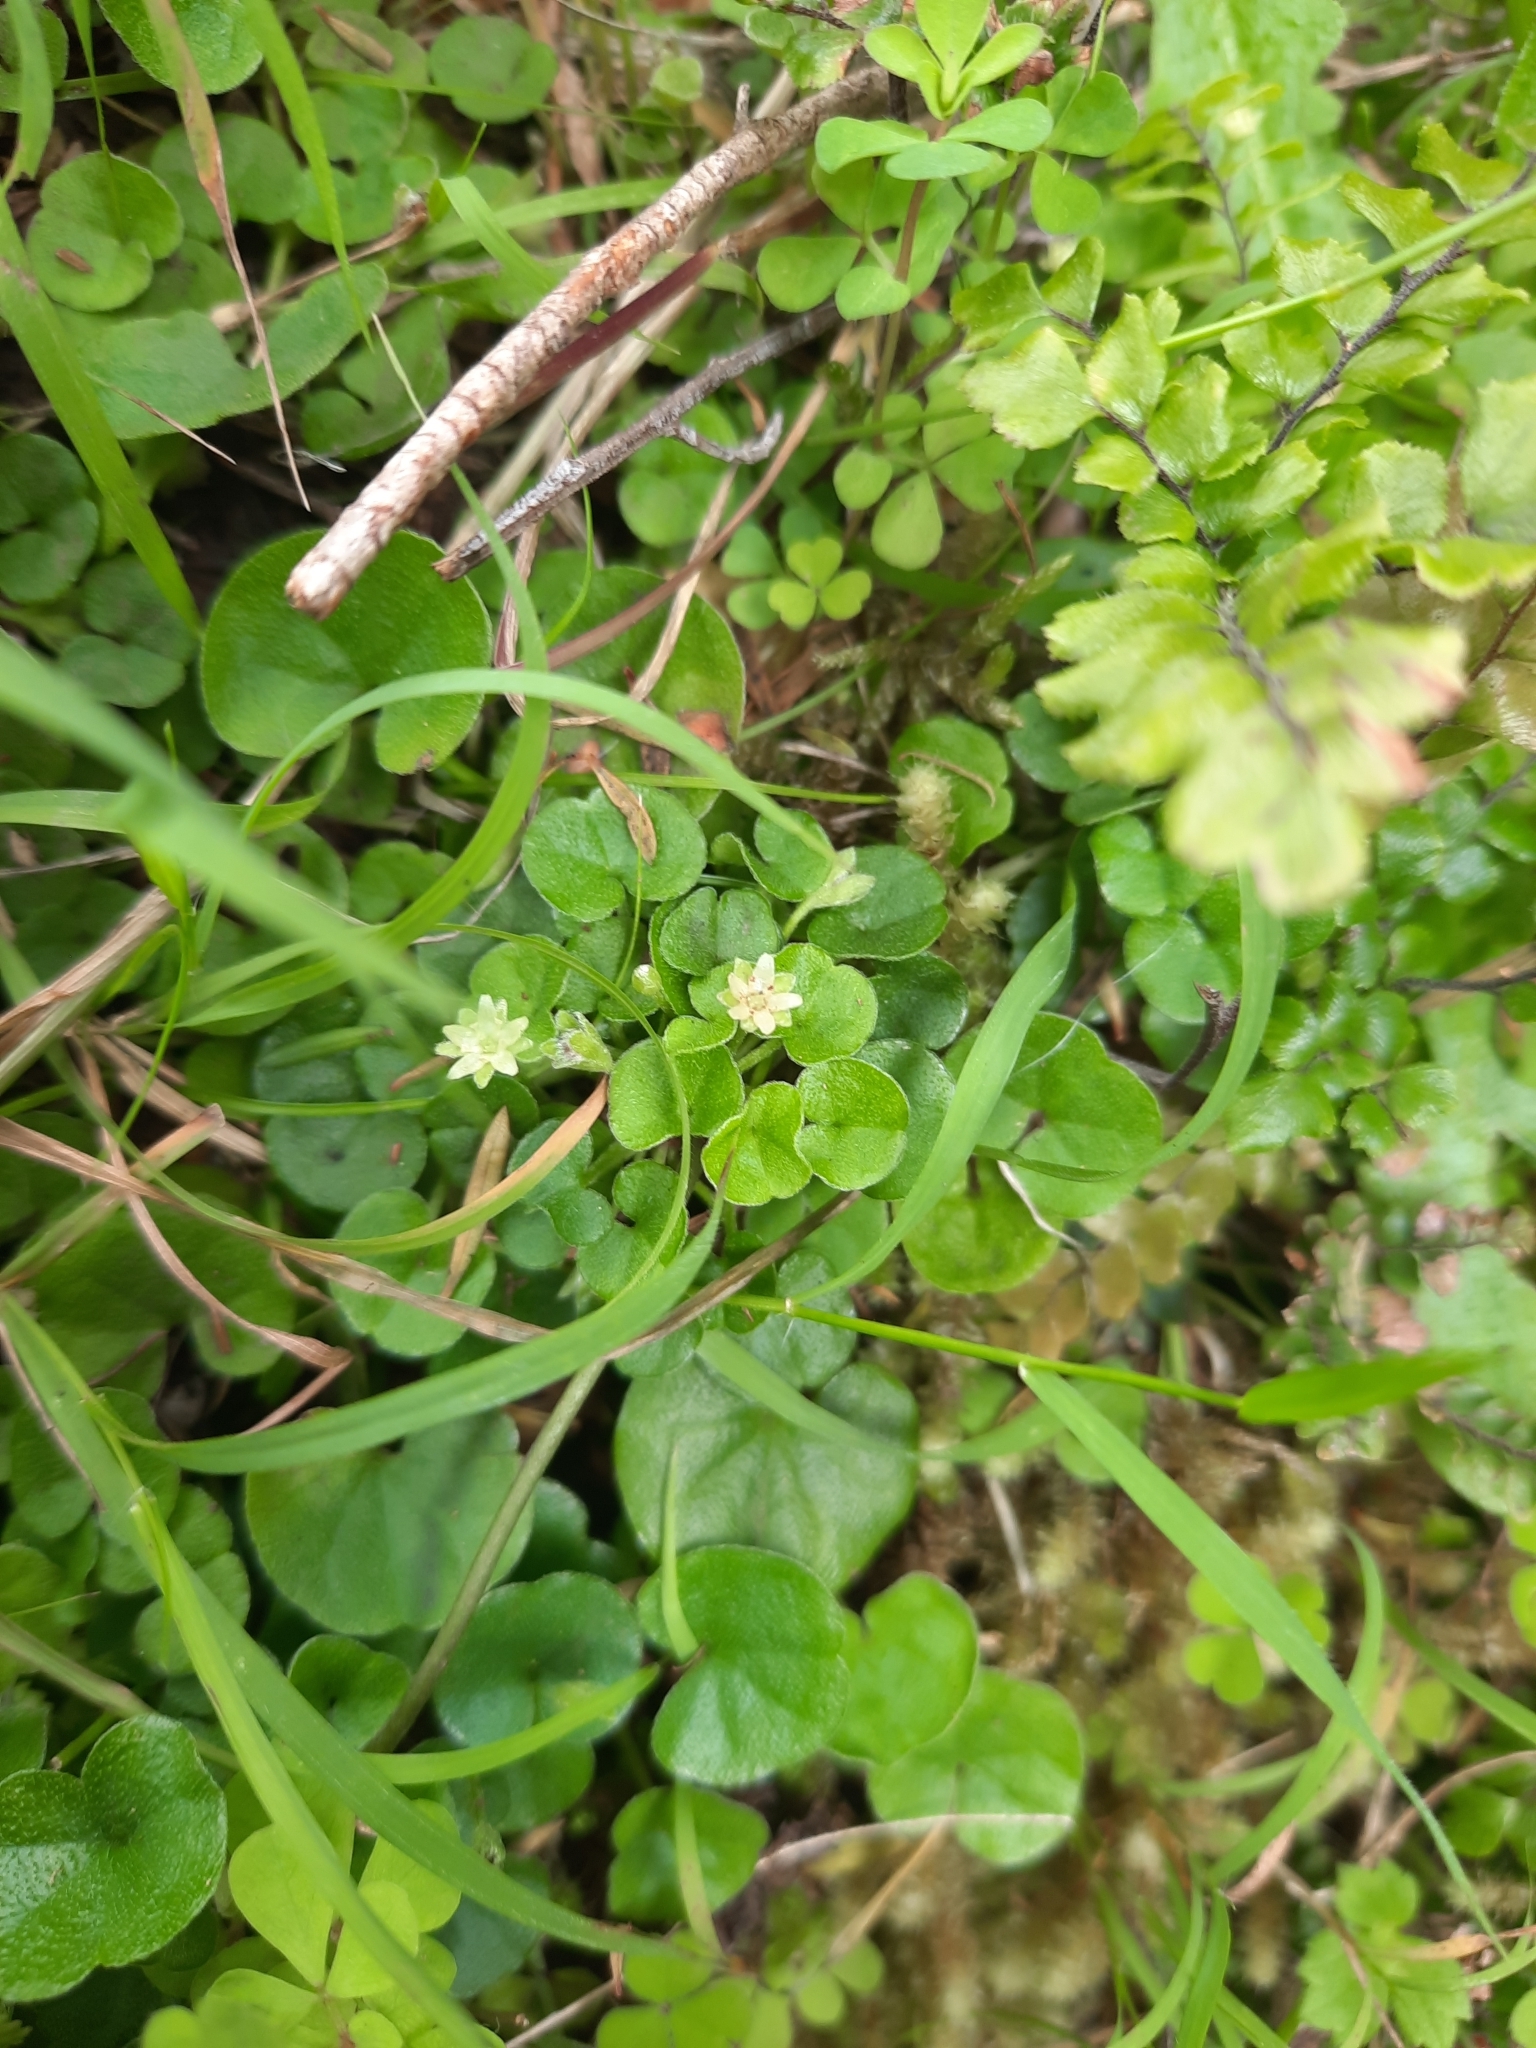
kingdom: Plantae
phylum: Tracheophyta
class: Magnoliopsida
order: Solanales
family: Convolvulaceae
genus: Dichondra
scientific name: Dichondra repens
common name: Kidneyweed
